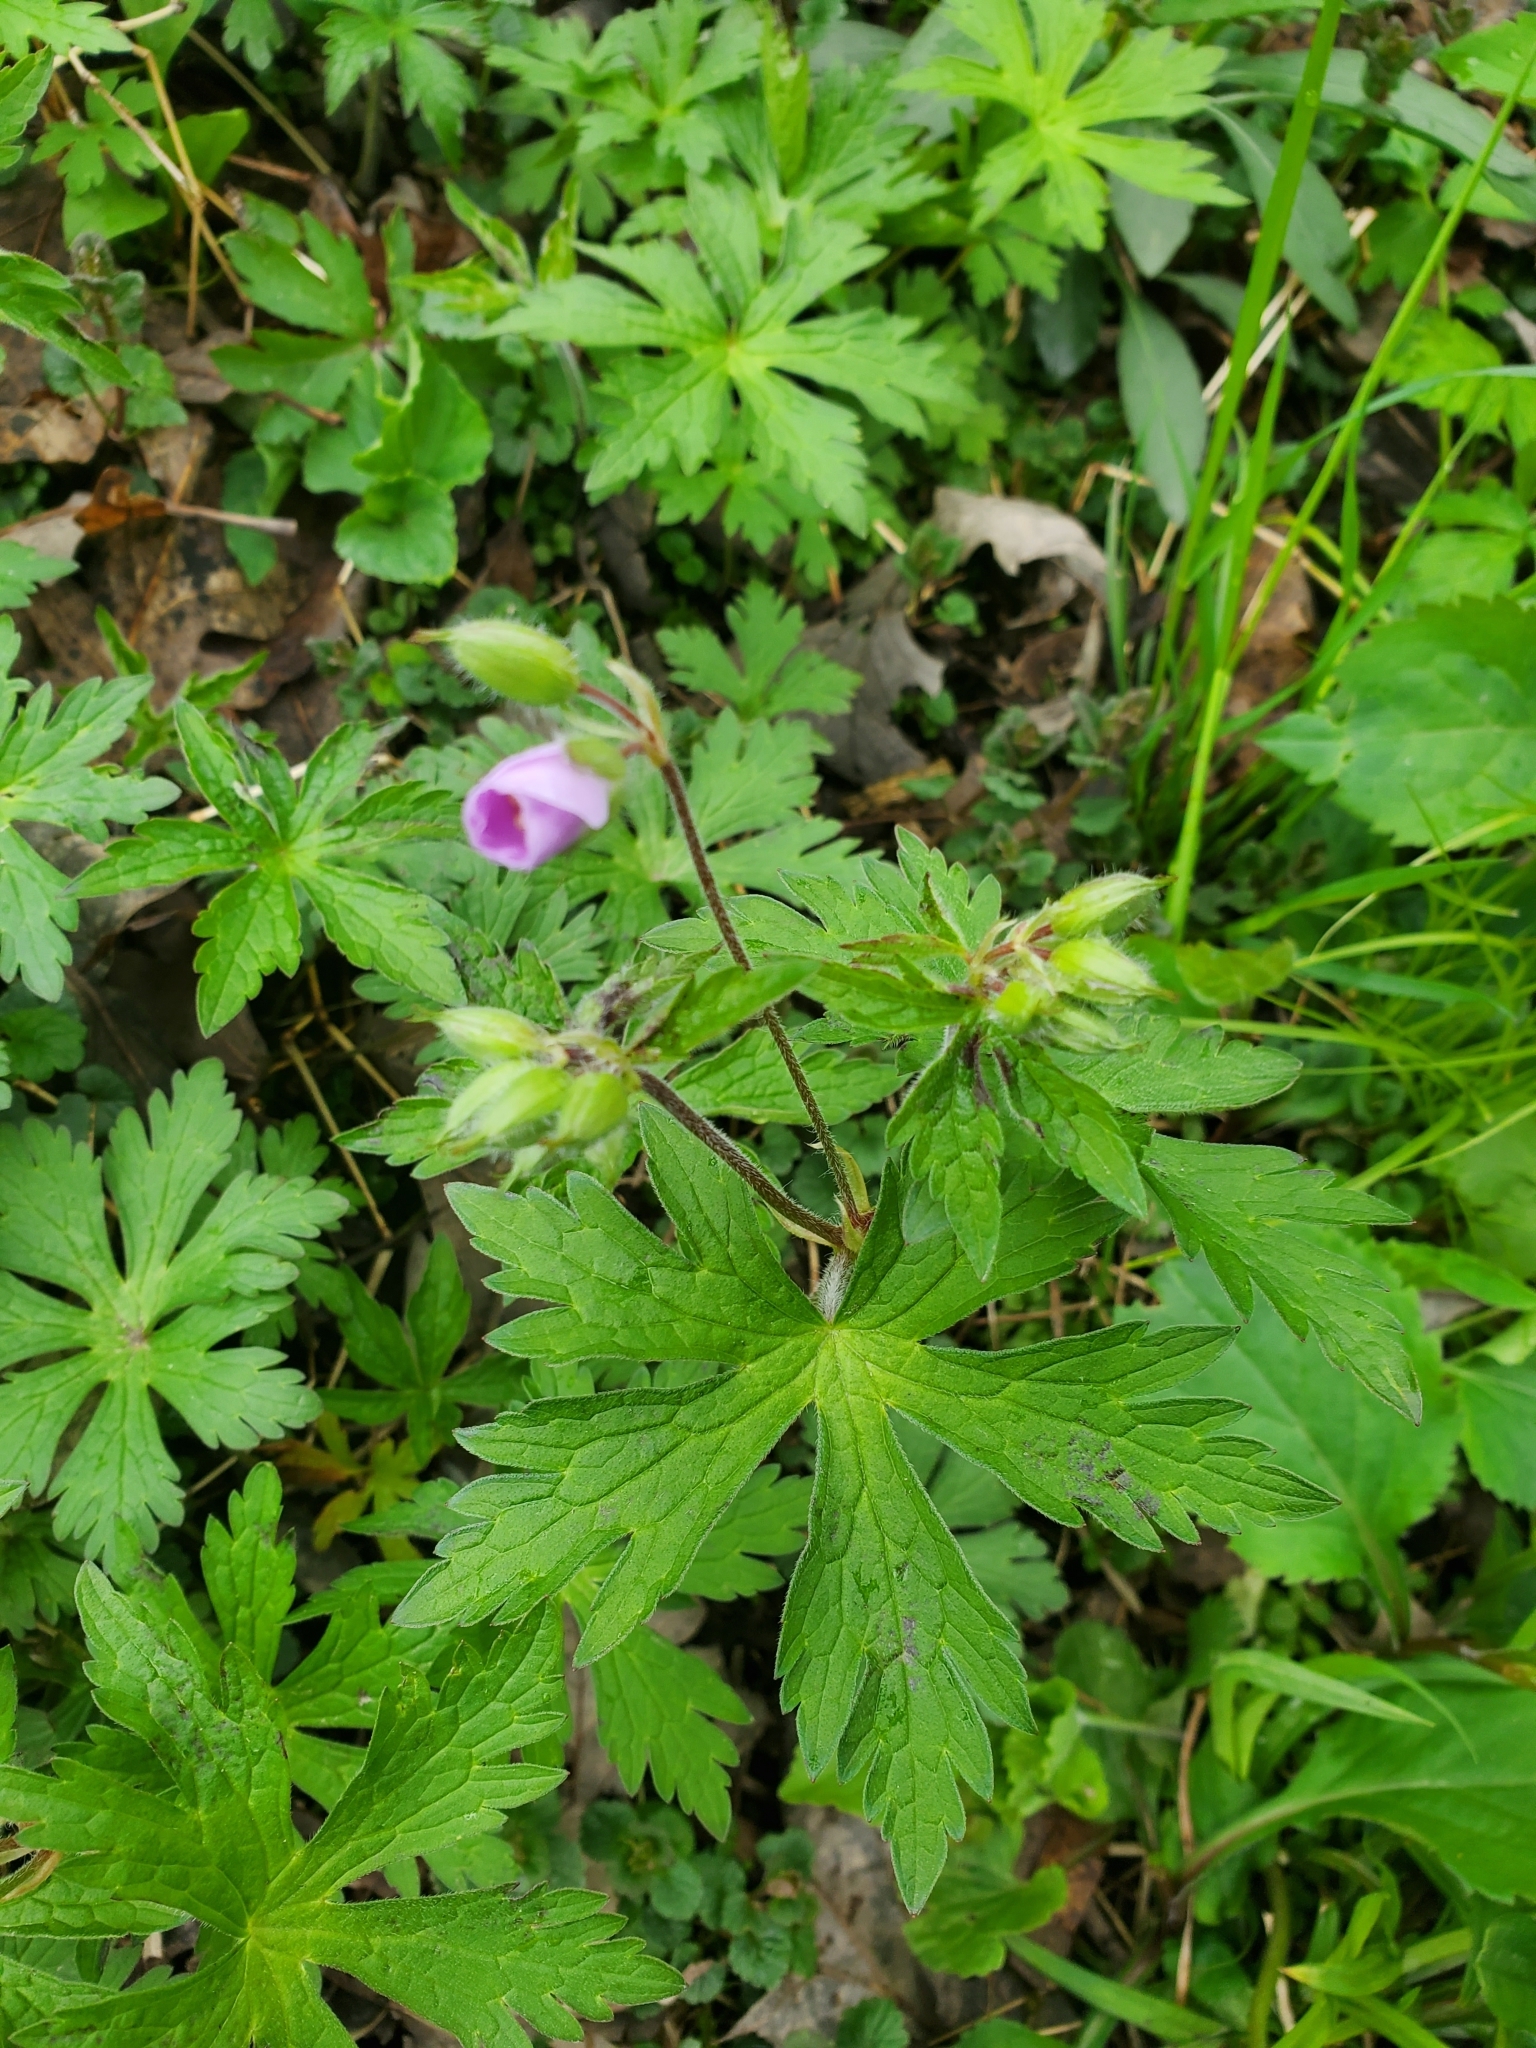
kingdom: Plantae
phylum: Tracheophyta
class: Magnoliopsida
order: Geraniales
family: Geraniaceae
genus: Geranium
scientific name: Geranium maculatum
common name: Spotted geranium
